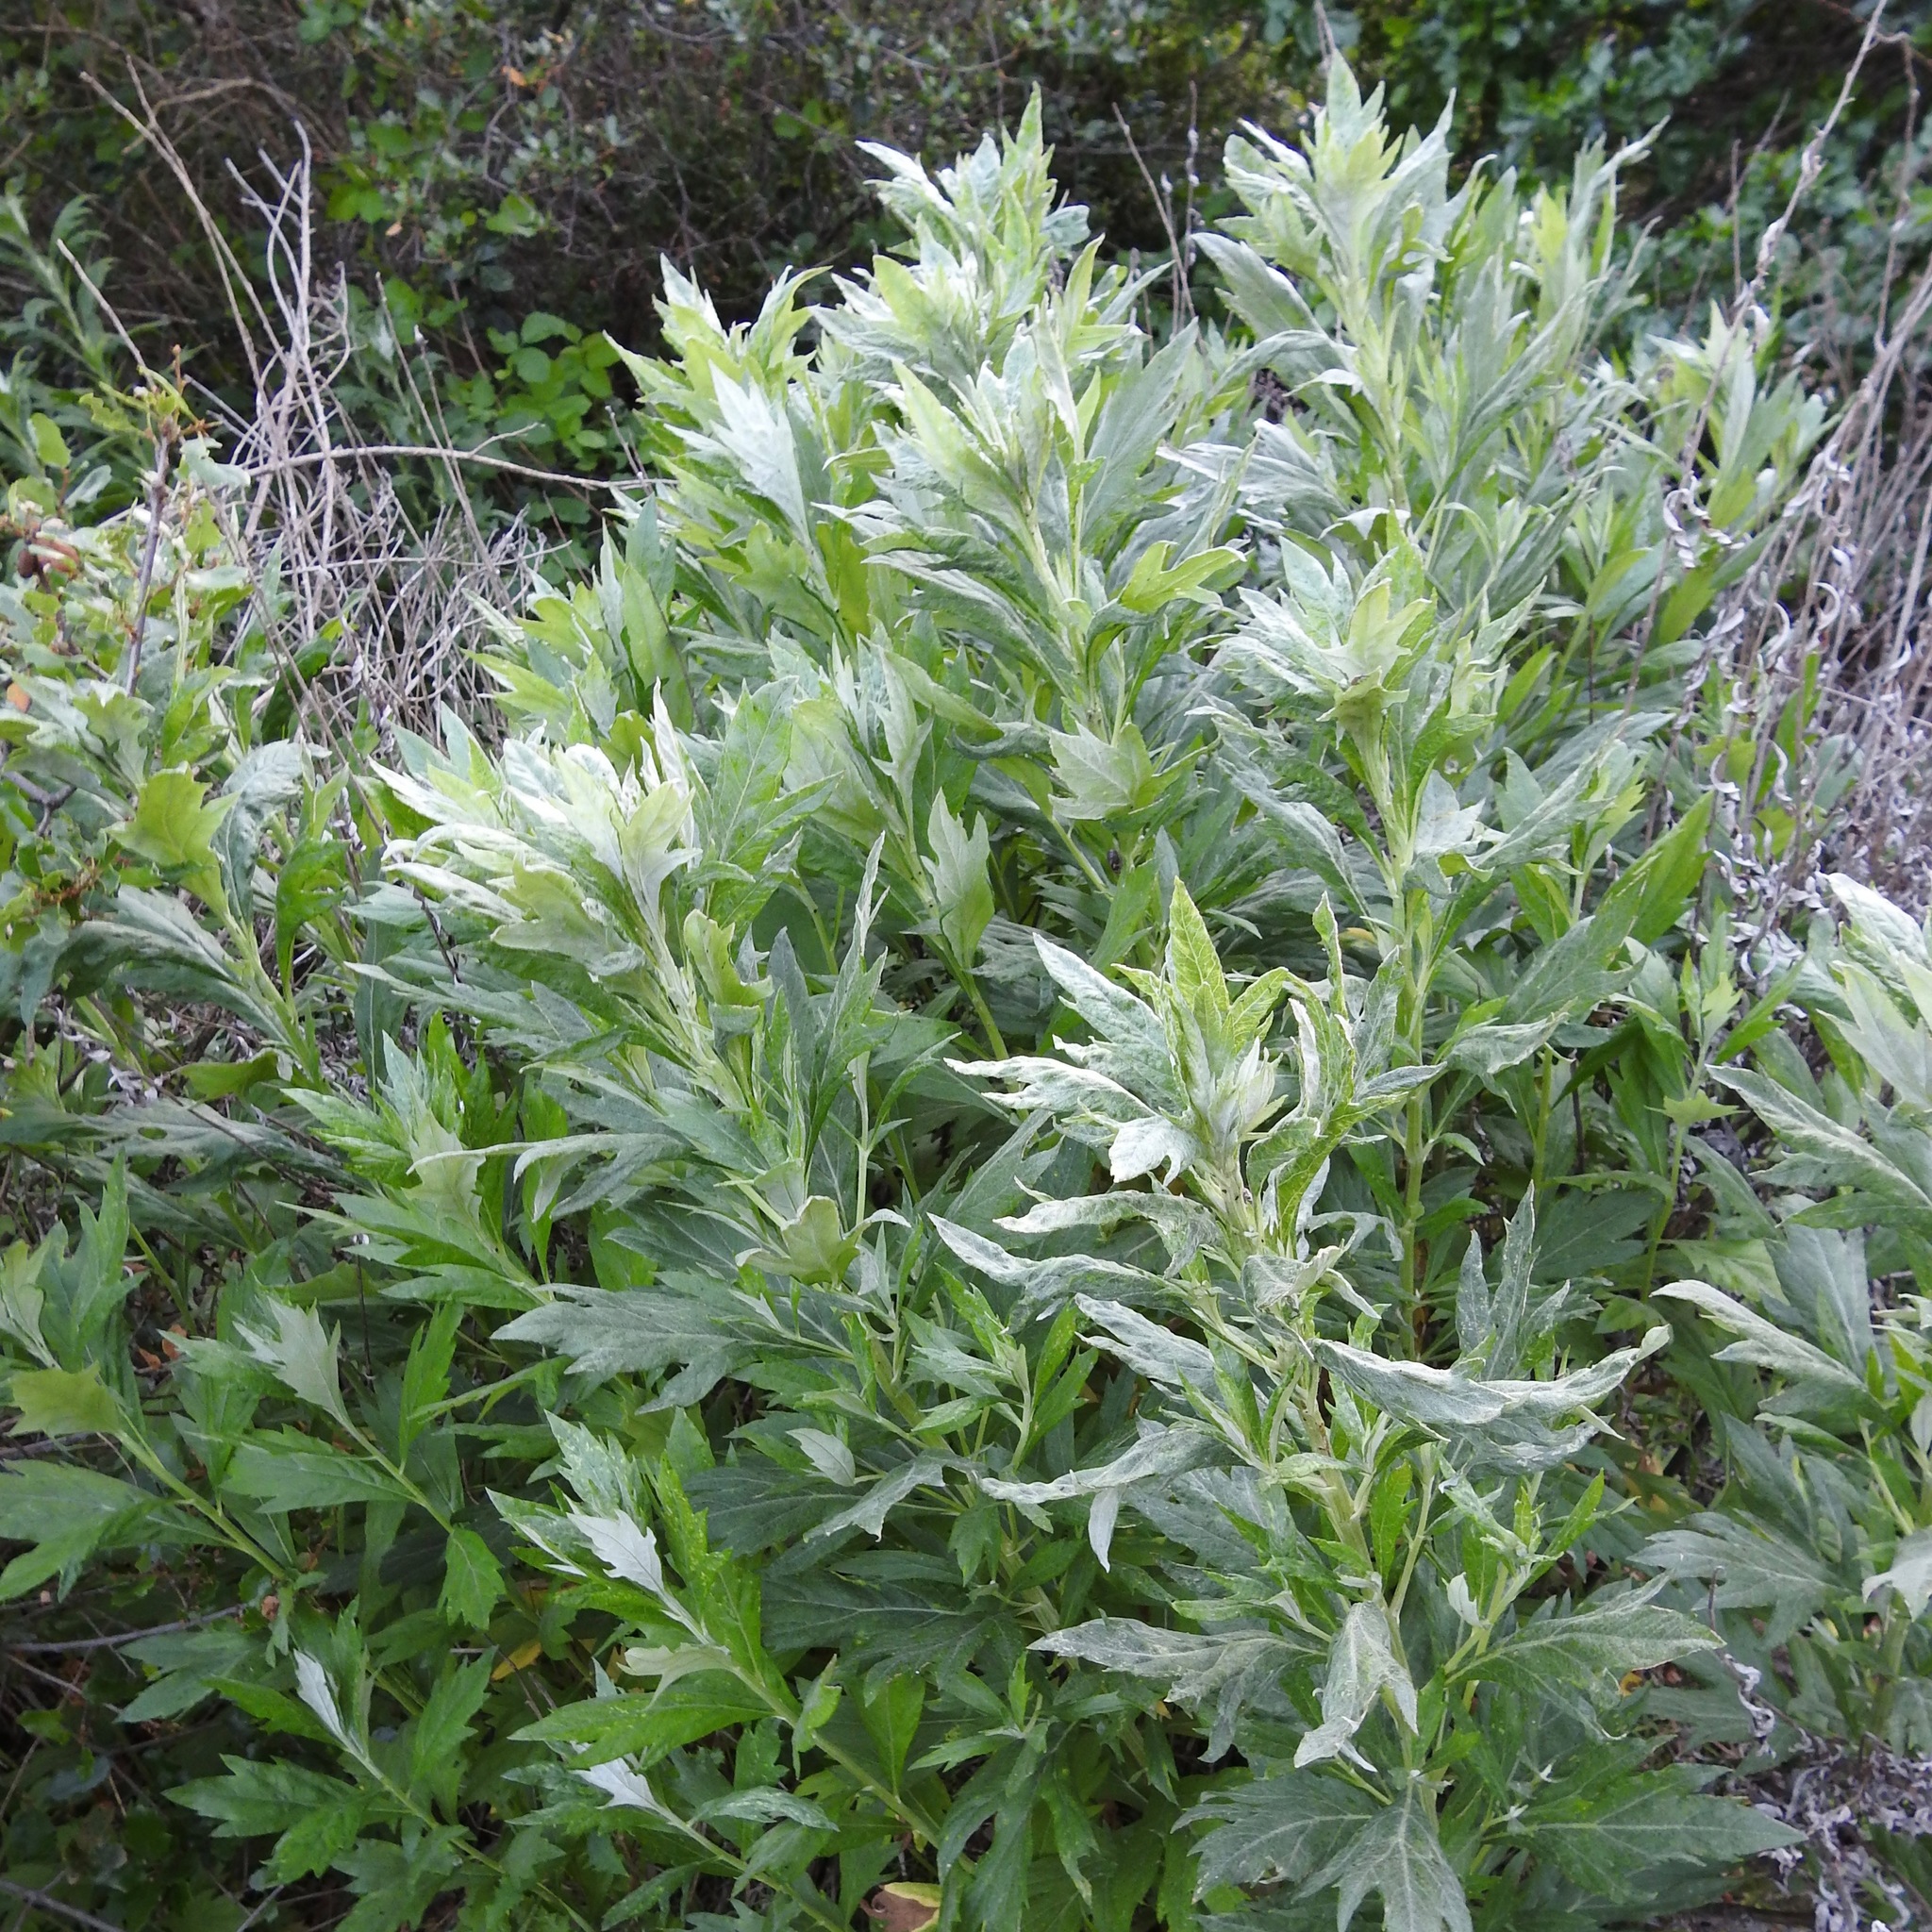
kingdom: Plantae
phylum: Tracheophyta
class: Magnoliopsida
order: Asterales
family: Asteraceae
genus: Artemisia
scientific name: Artemisia douglasiana
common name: Northwest mugwort
